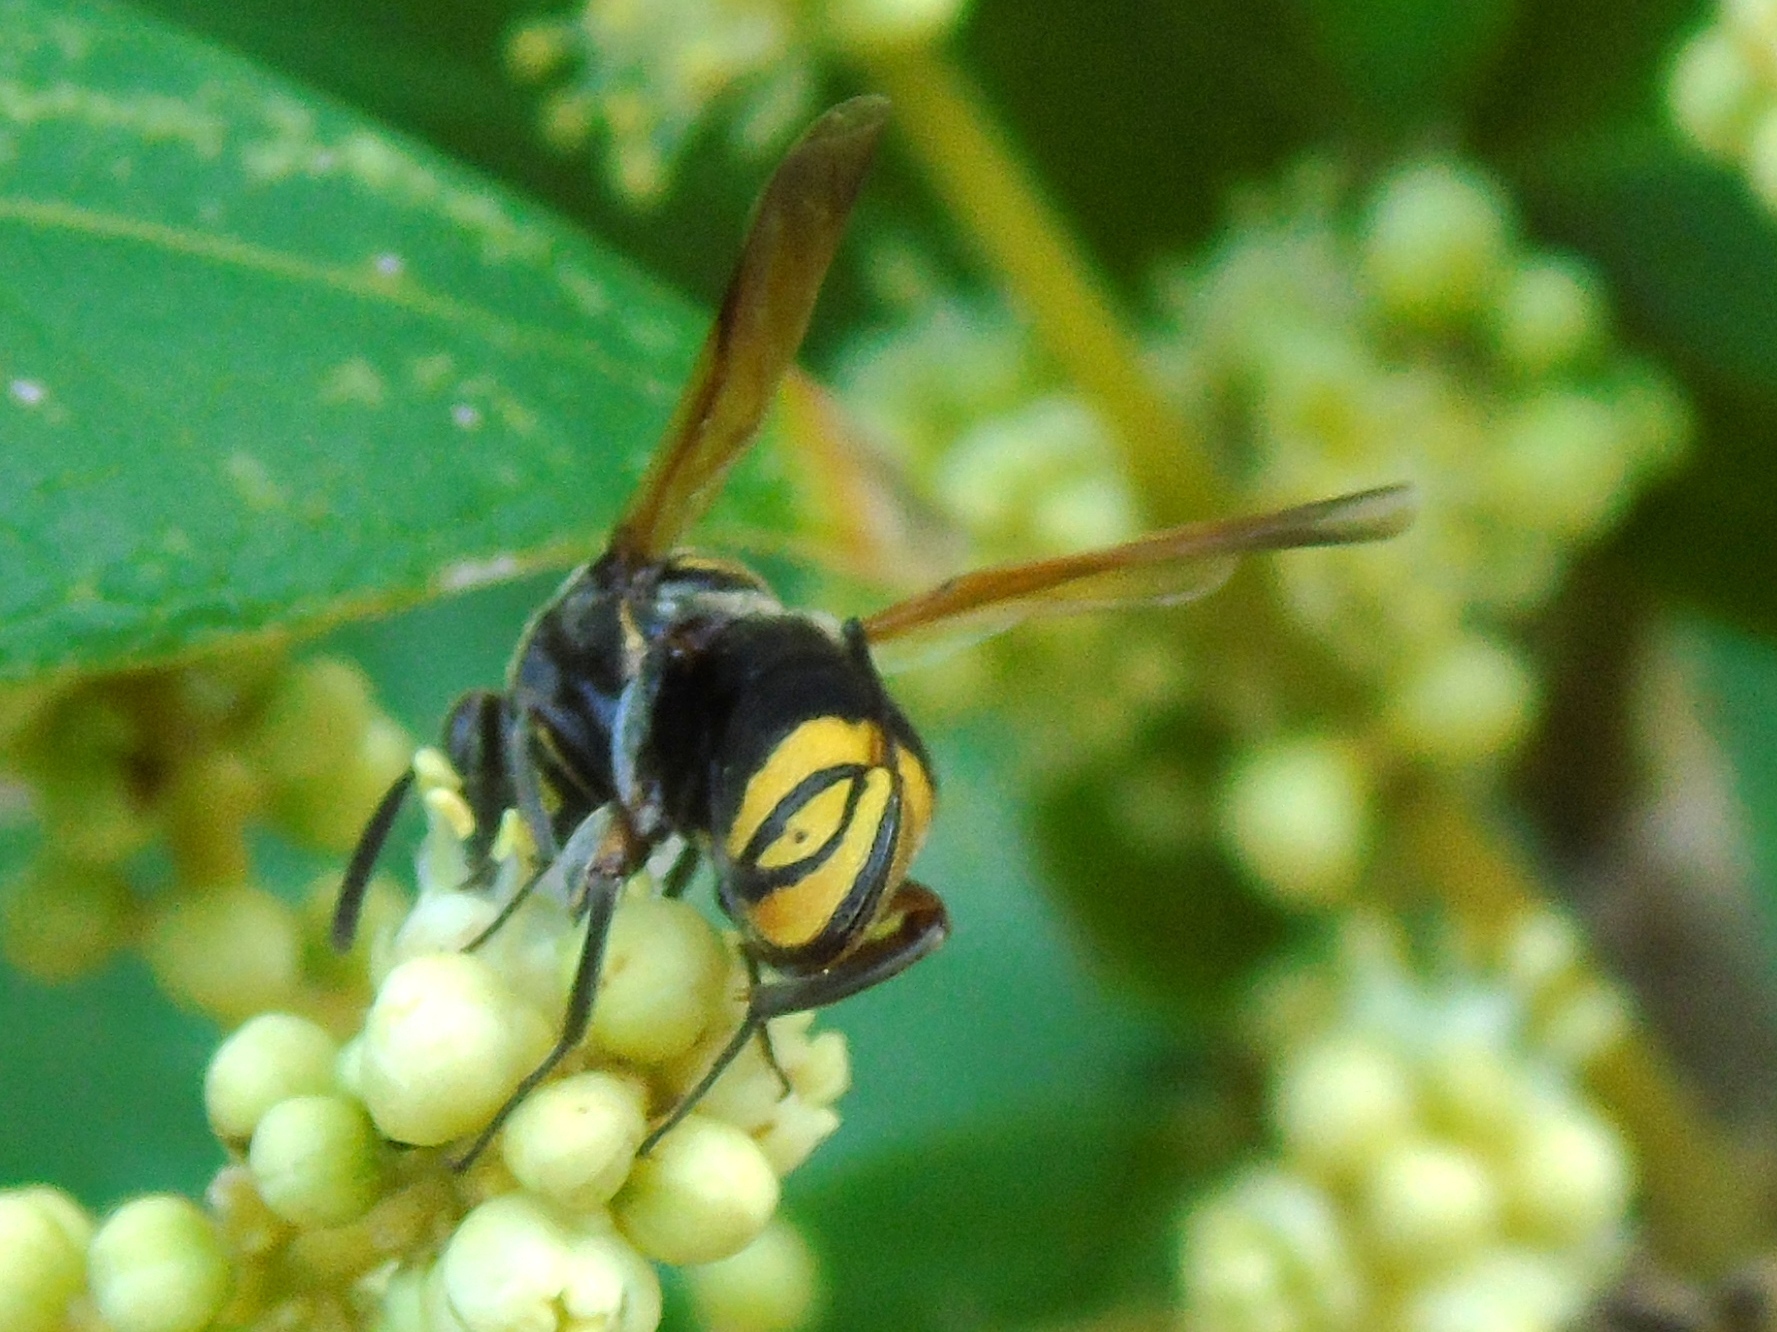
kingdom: Animalia
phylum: Arthropoda
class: Insecta
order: Hymenoptera
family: Leucospidae
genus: Leucospis
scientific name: Leucospis azteca
